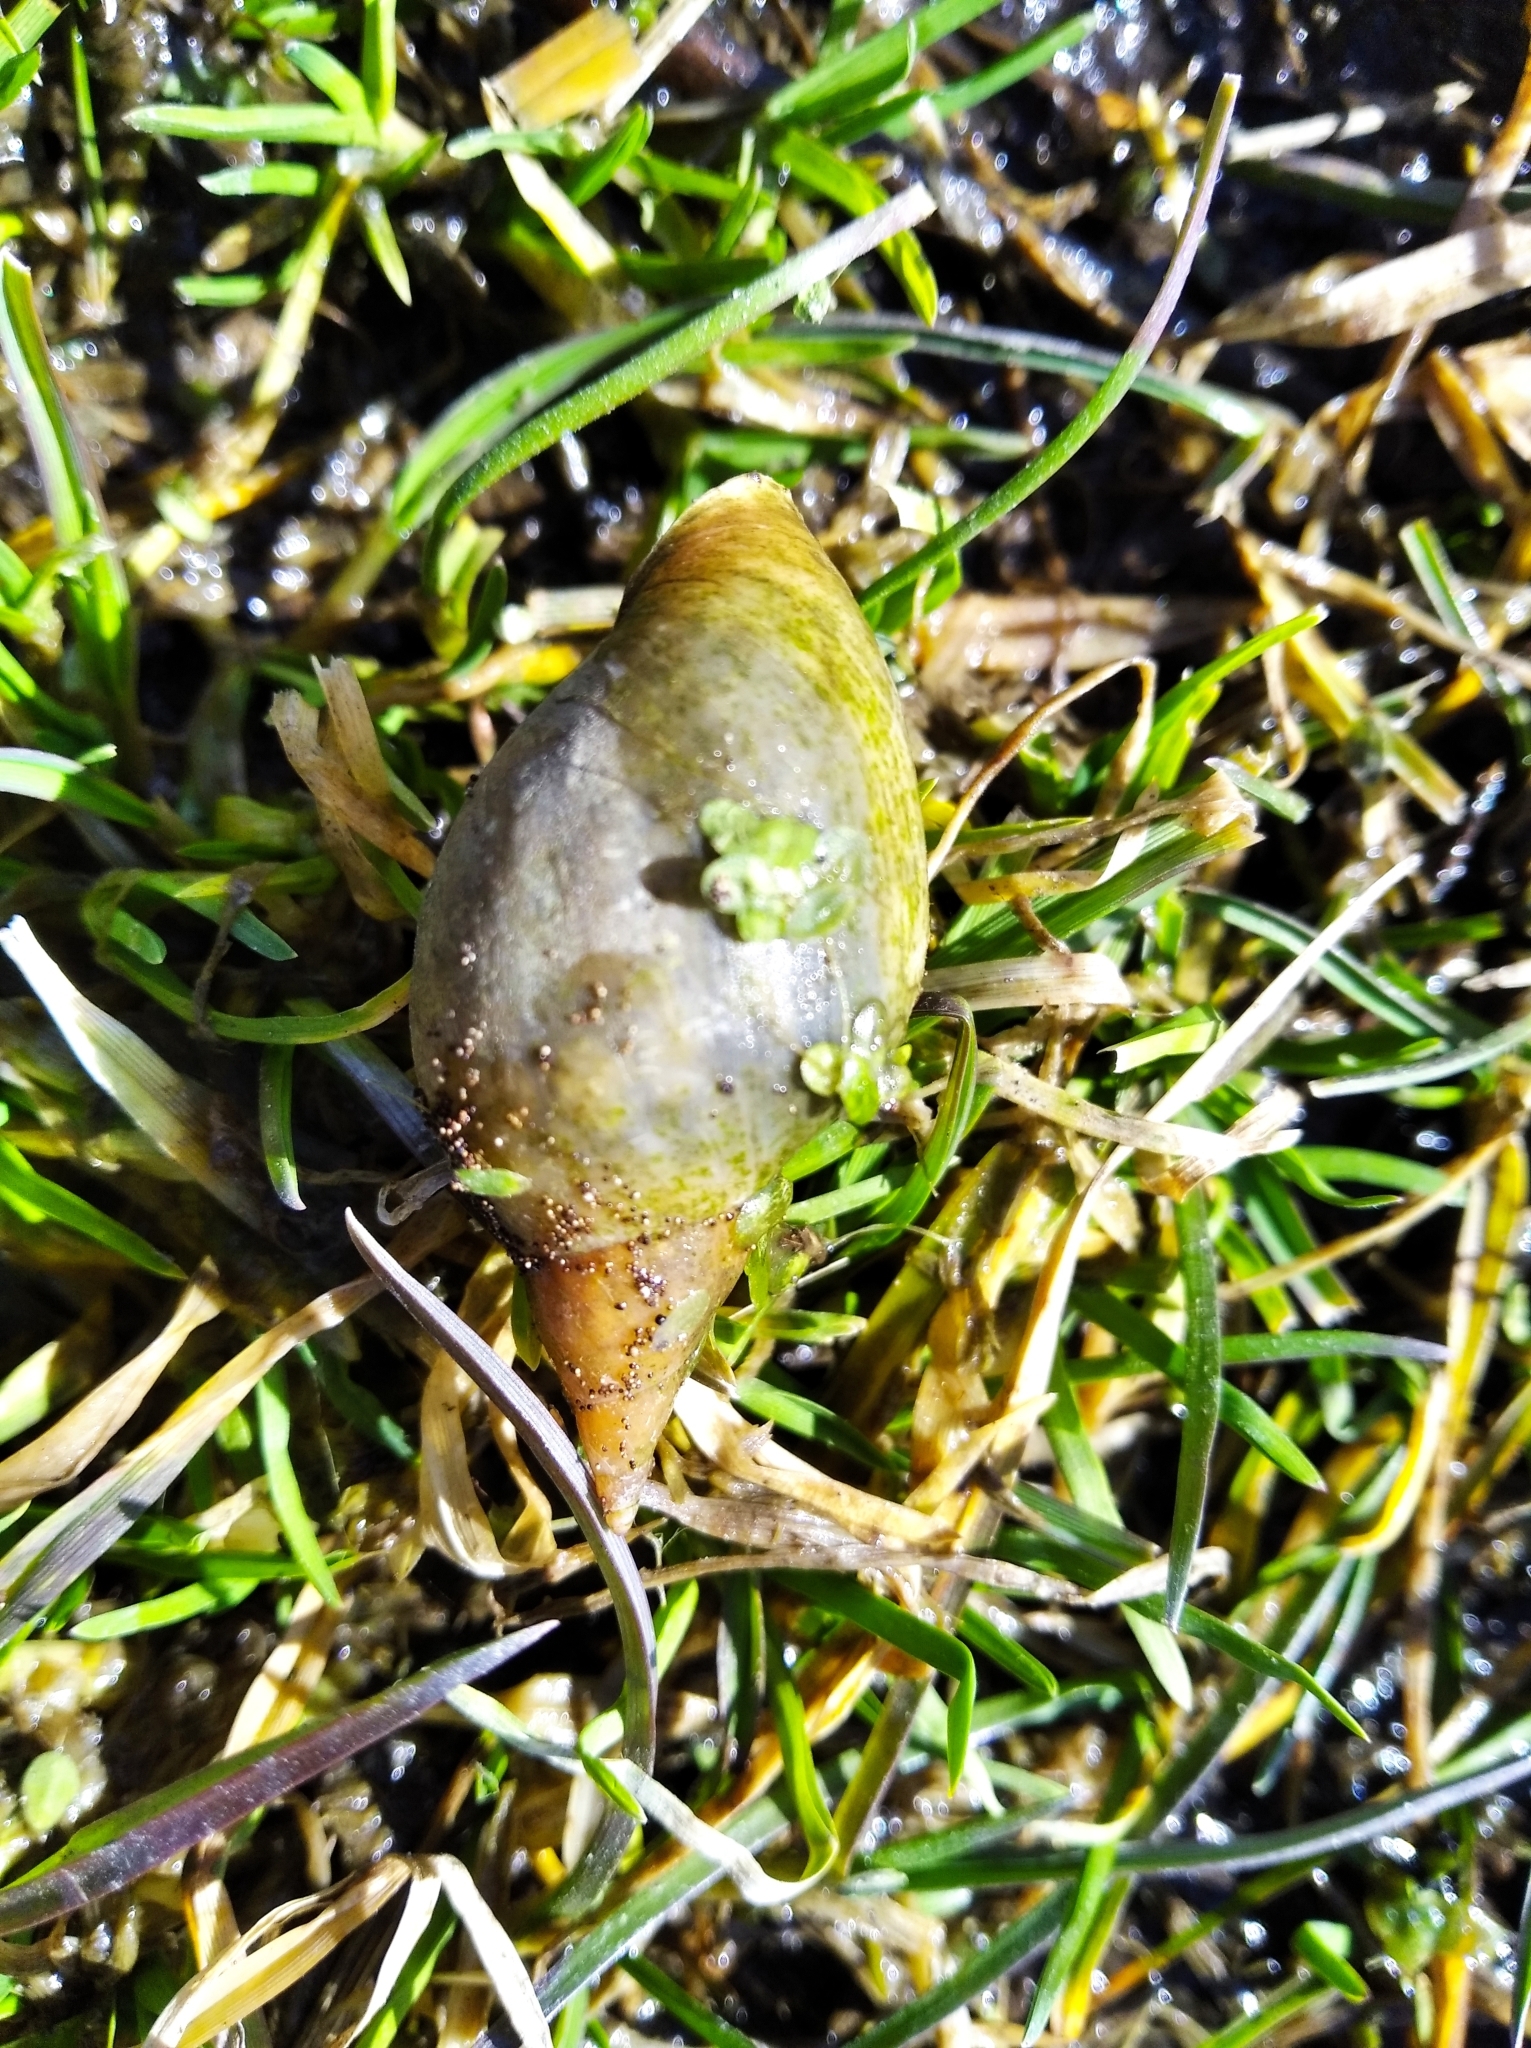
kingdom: Animalia
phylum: Mollusca
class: Gastropoda
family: Lymnaeidae
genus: Lymnaea
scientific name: Lymnaea stagnalis
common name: Great pond snail
